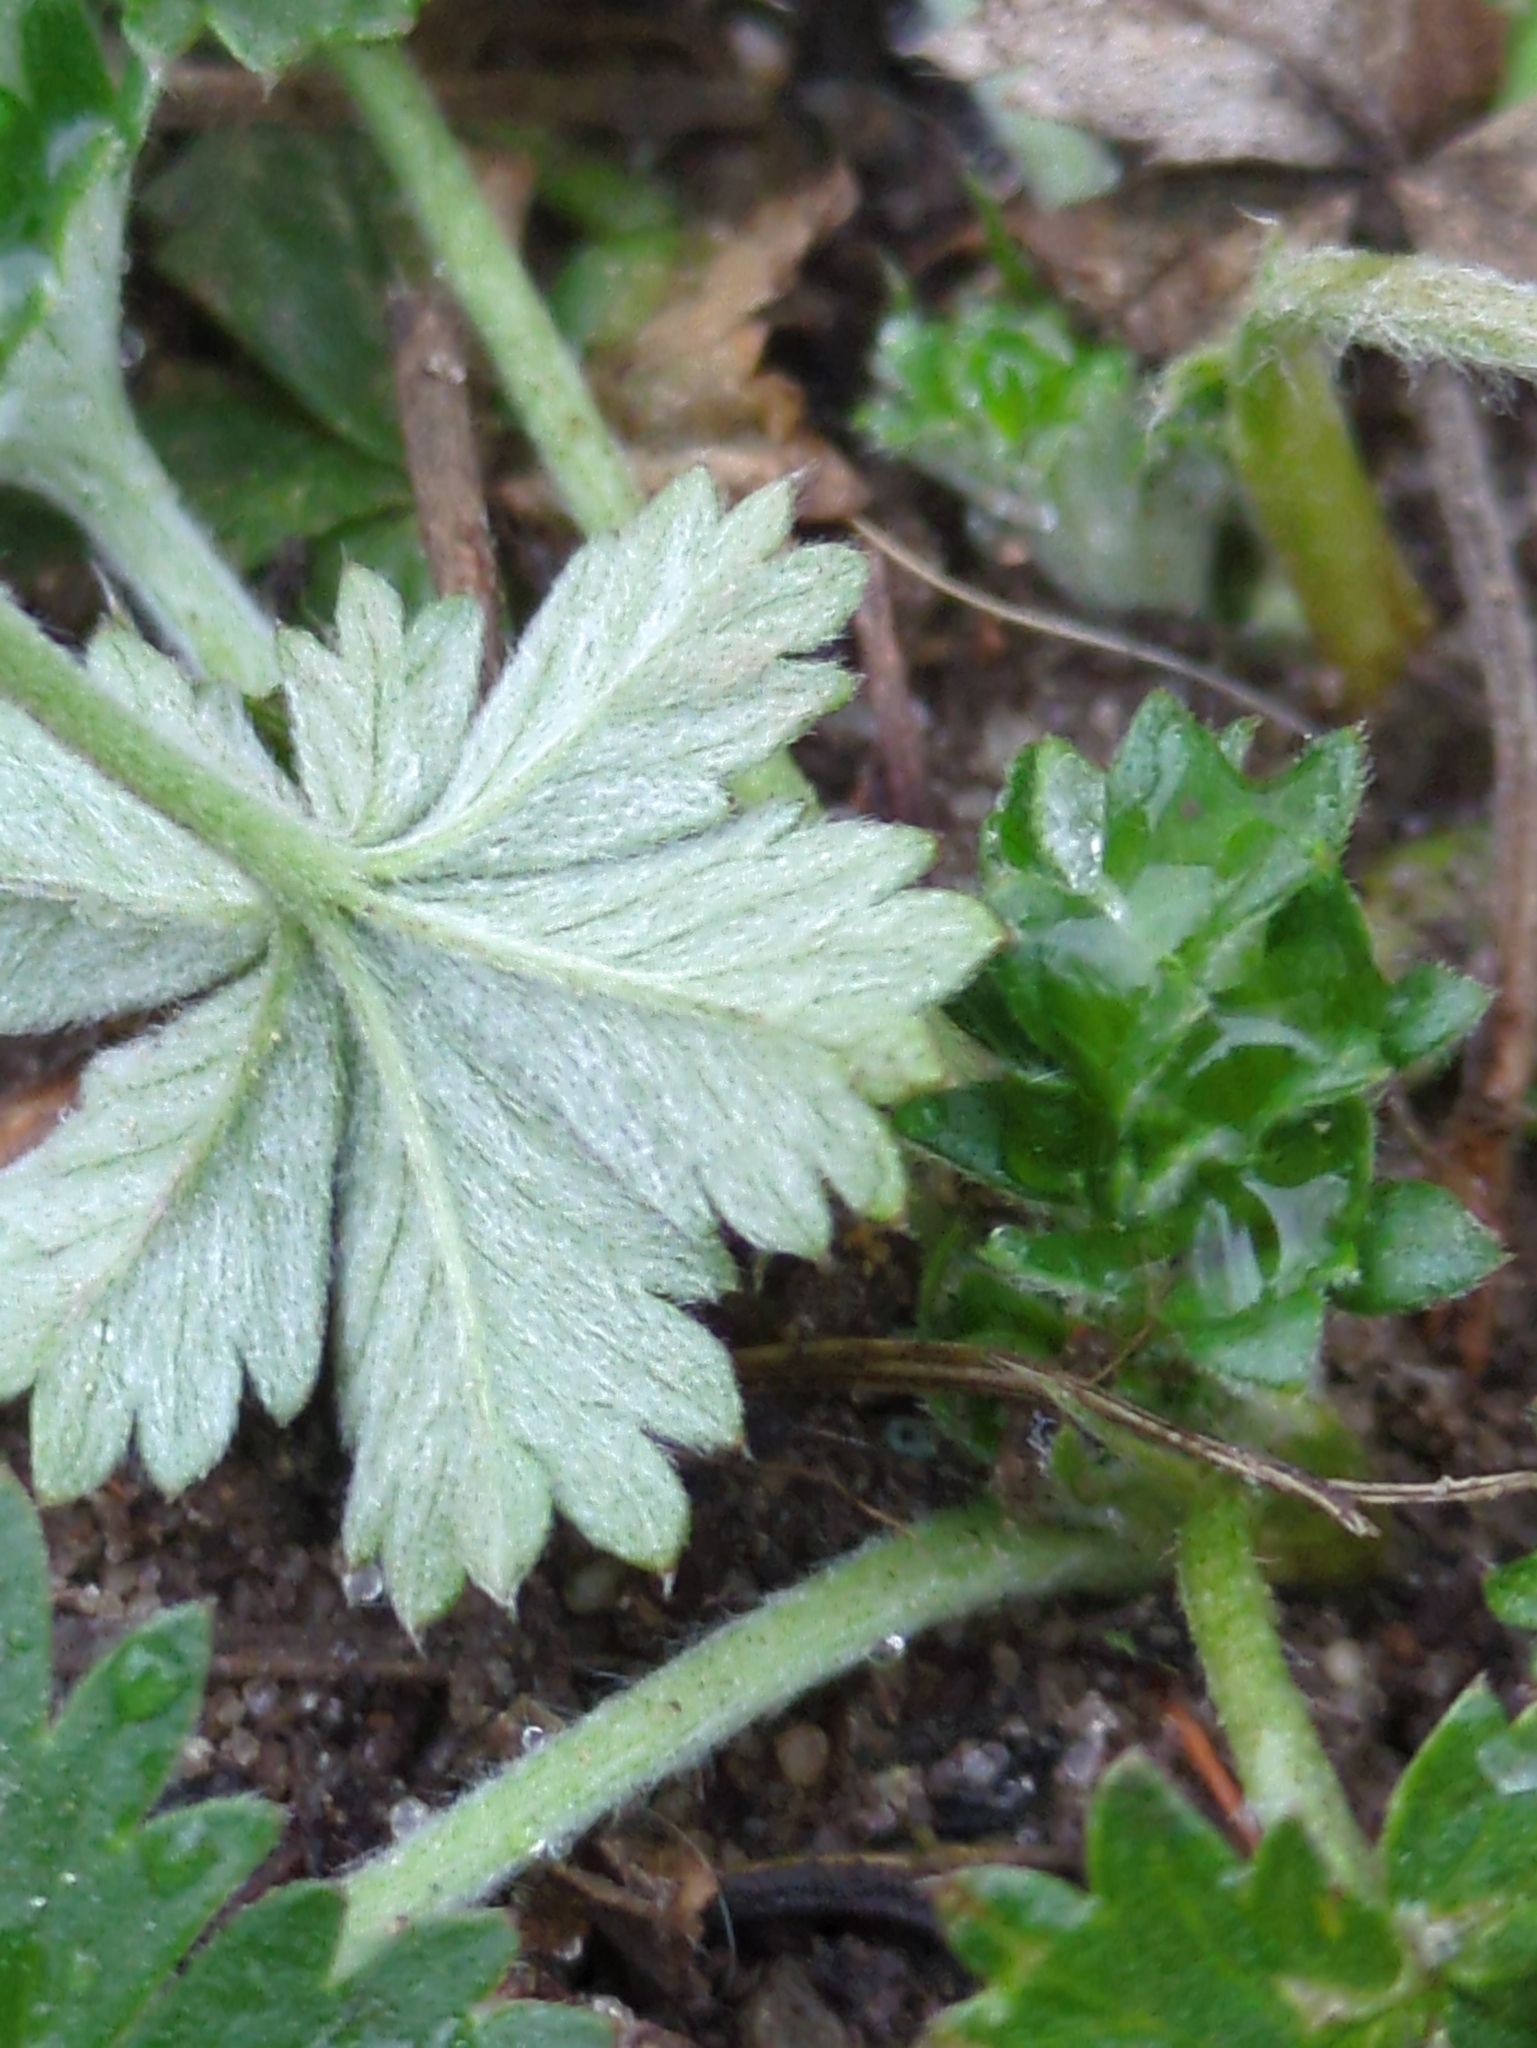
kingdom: Plantae
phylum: Tracheophyta
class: Magnoliopsida
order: Rosales
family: Rosaceae
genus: Potentilla
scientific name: Potentilla argentea
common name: Hoary cinquefoil
